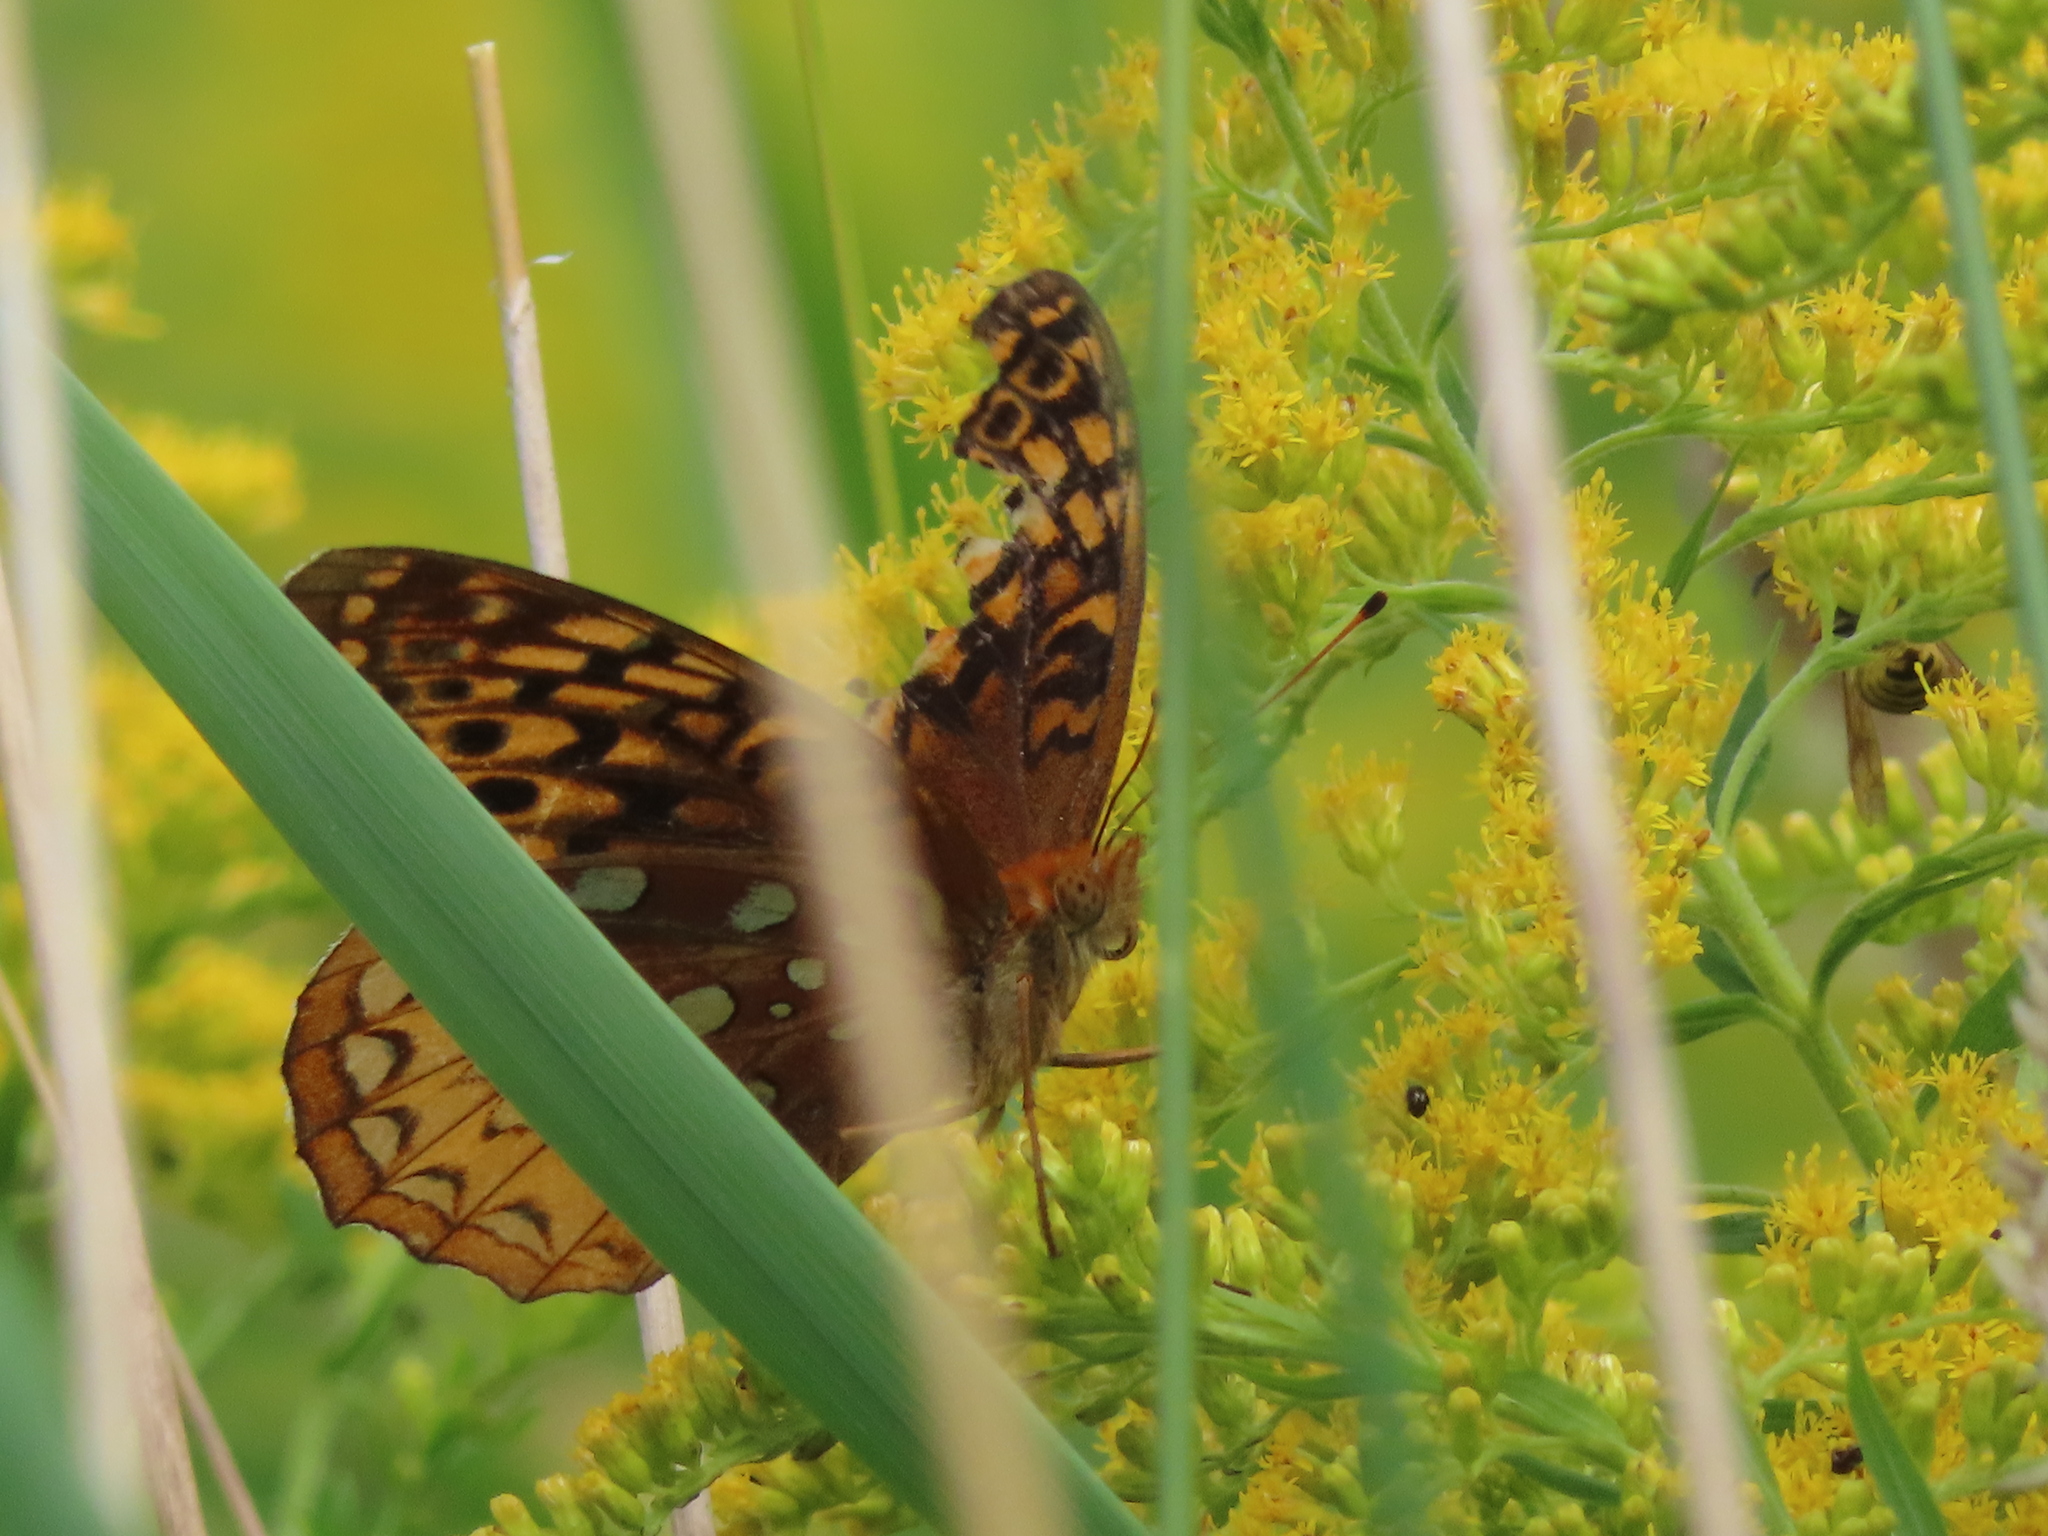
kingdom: Animalia
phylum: Arthropoda
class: Insecta
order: Lepidoptera
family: Nymphalidae
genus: Speyeria
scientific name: Speyeria cybele
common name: Great spangled fritillary
